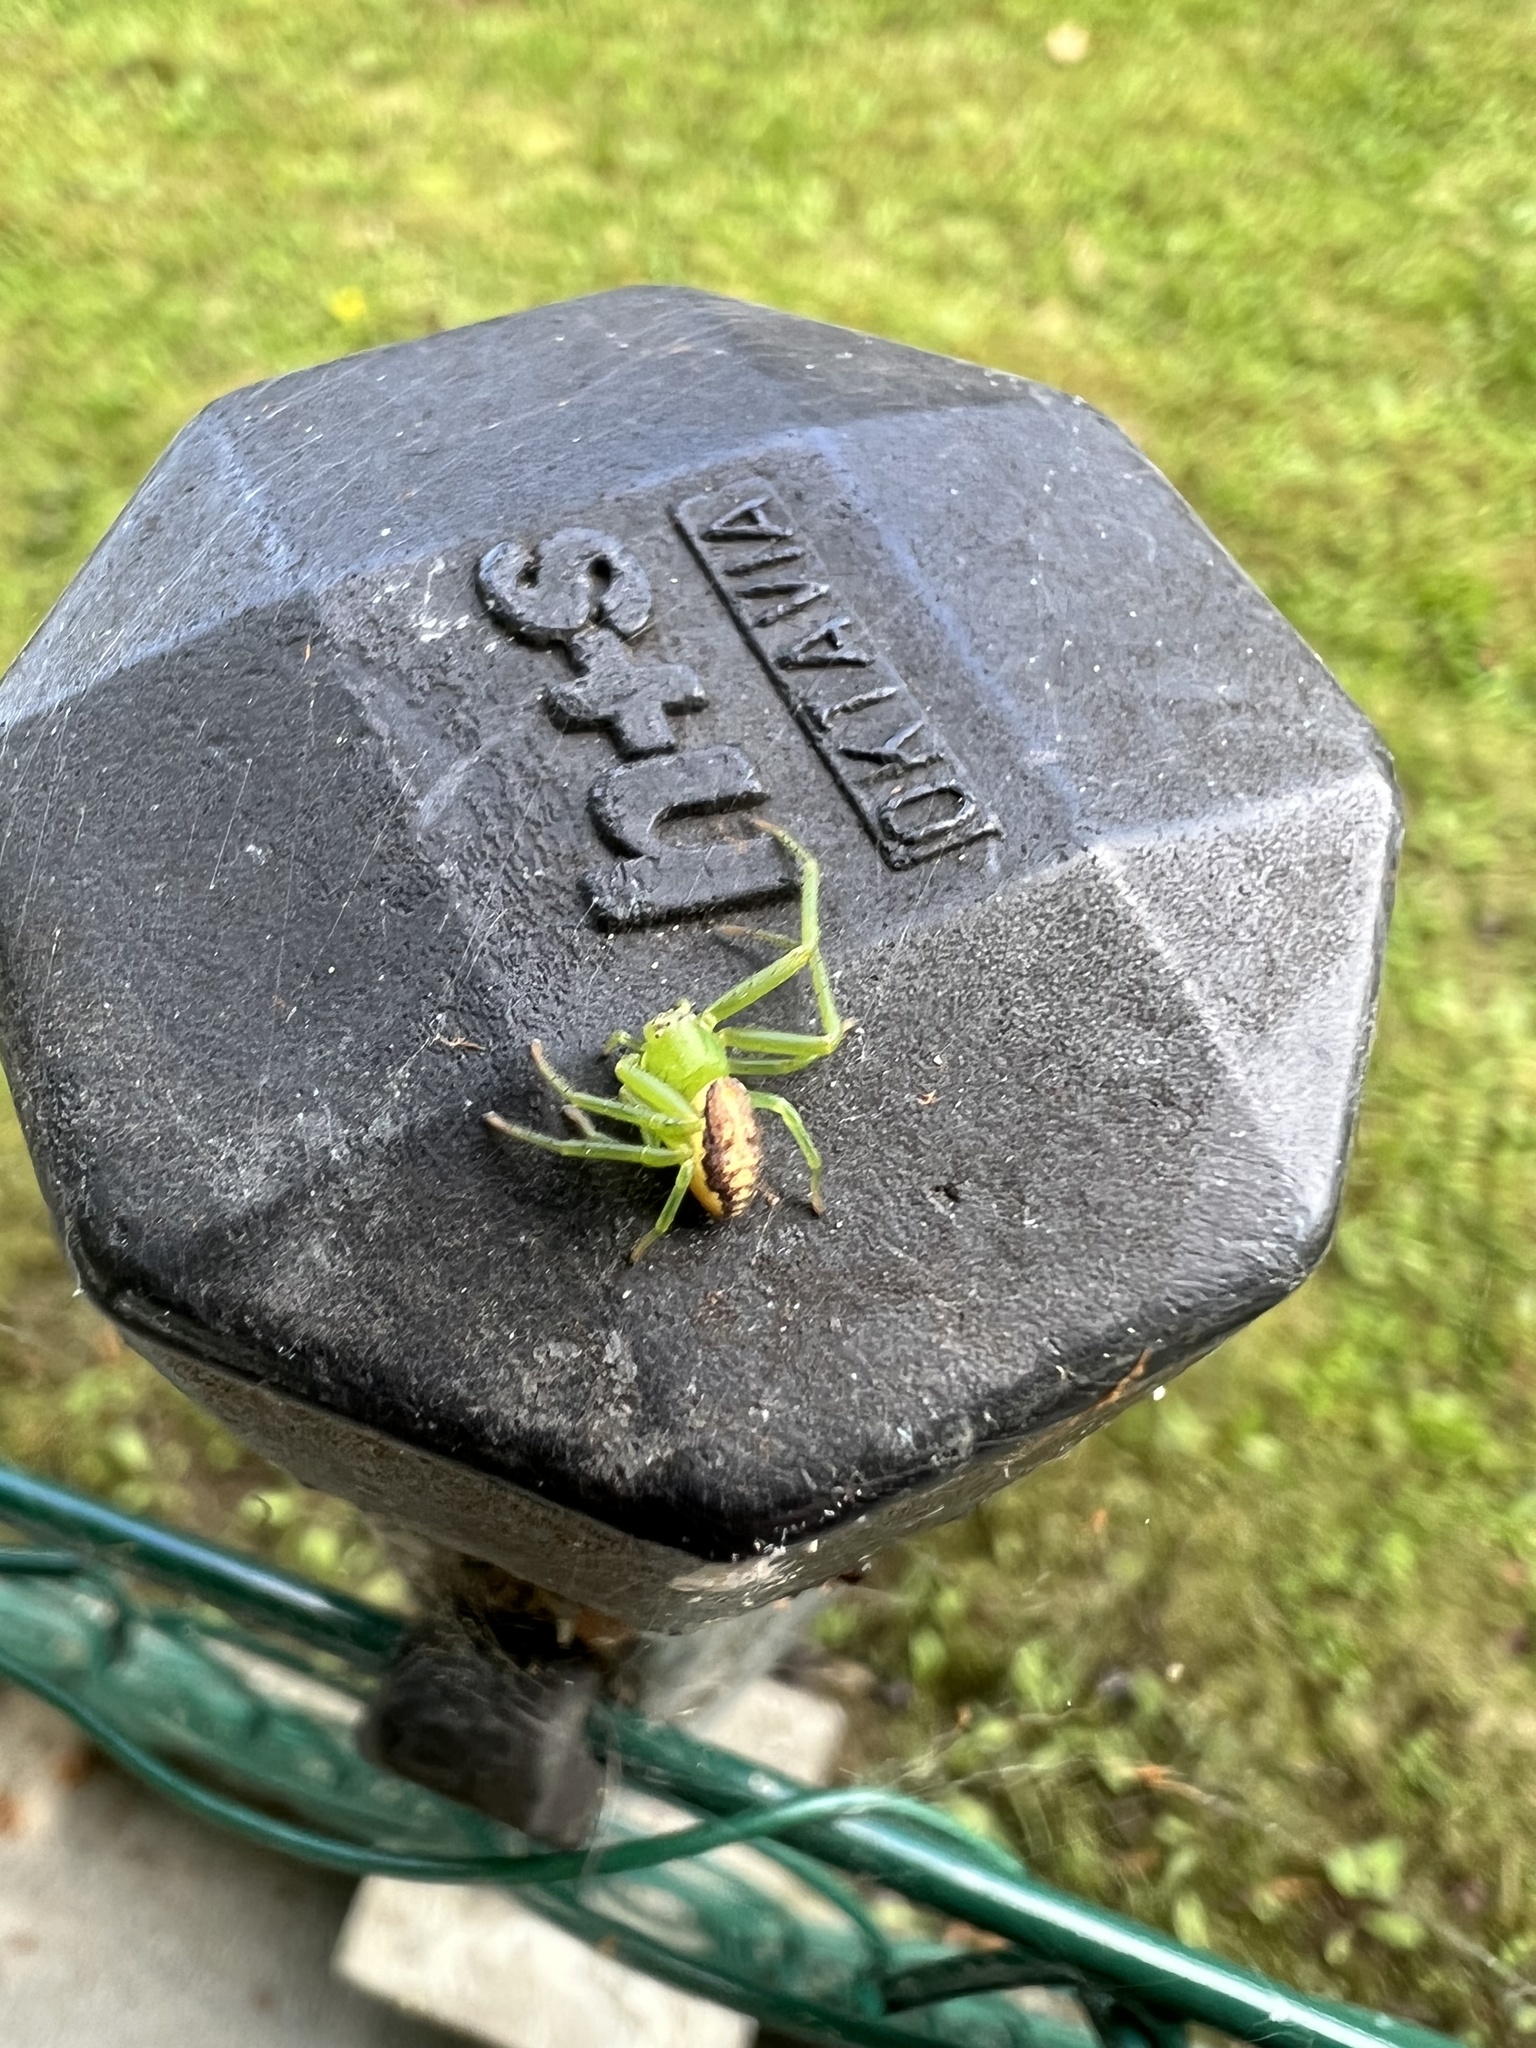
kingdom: Animalia
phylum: Arthropoda
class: Arachnida
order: Araneae
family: Thomisidae
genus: Diaea
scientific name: Diaea dorsata
